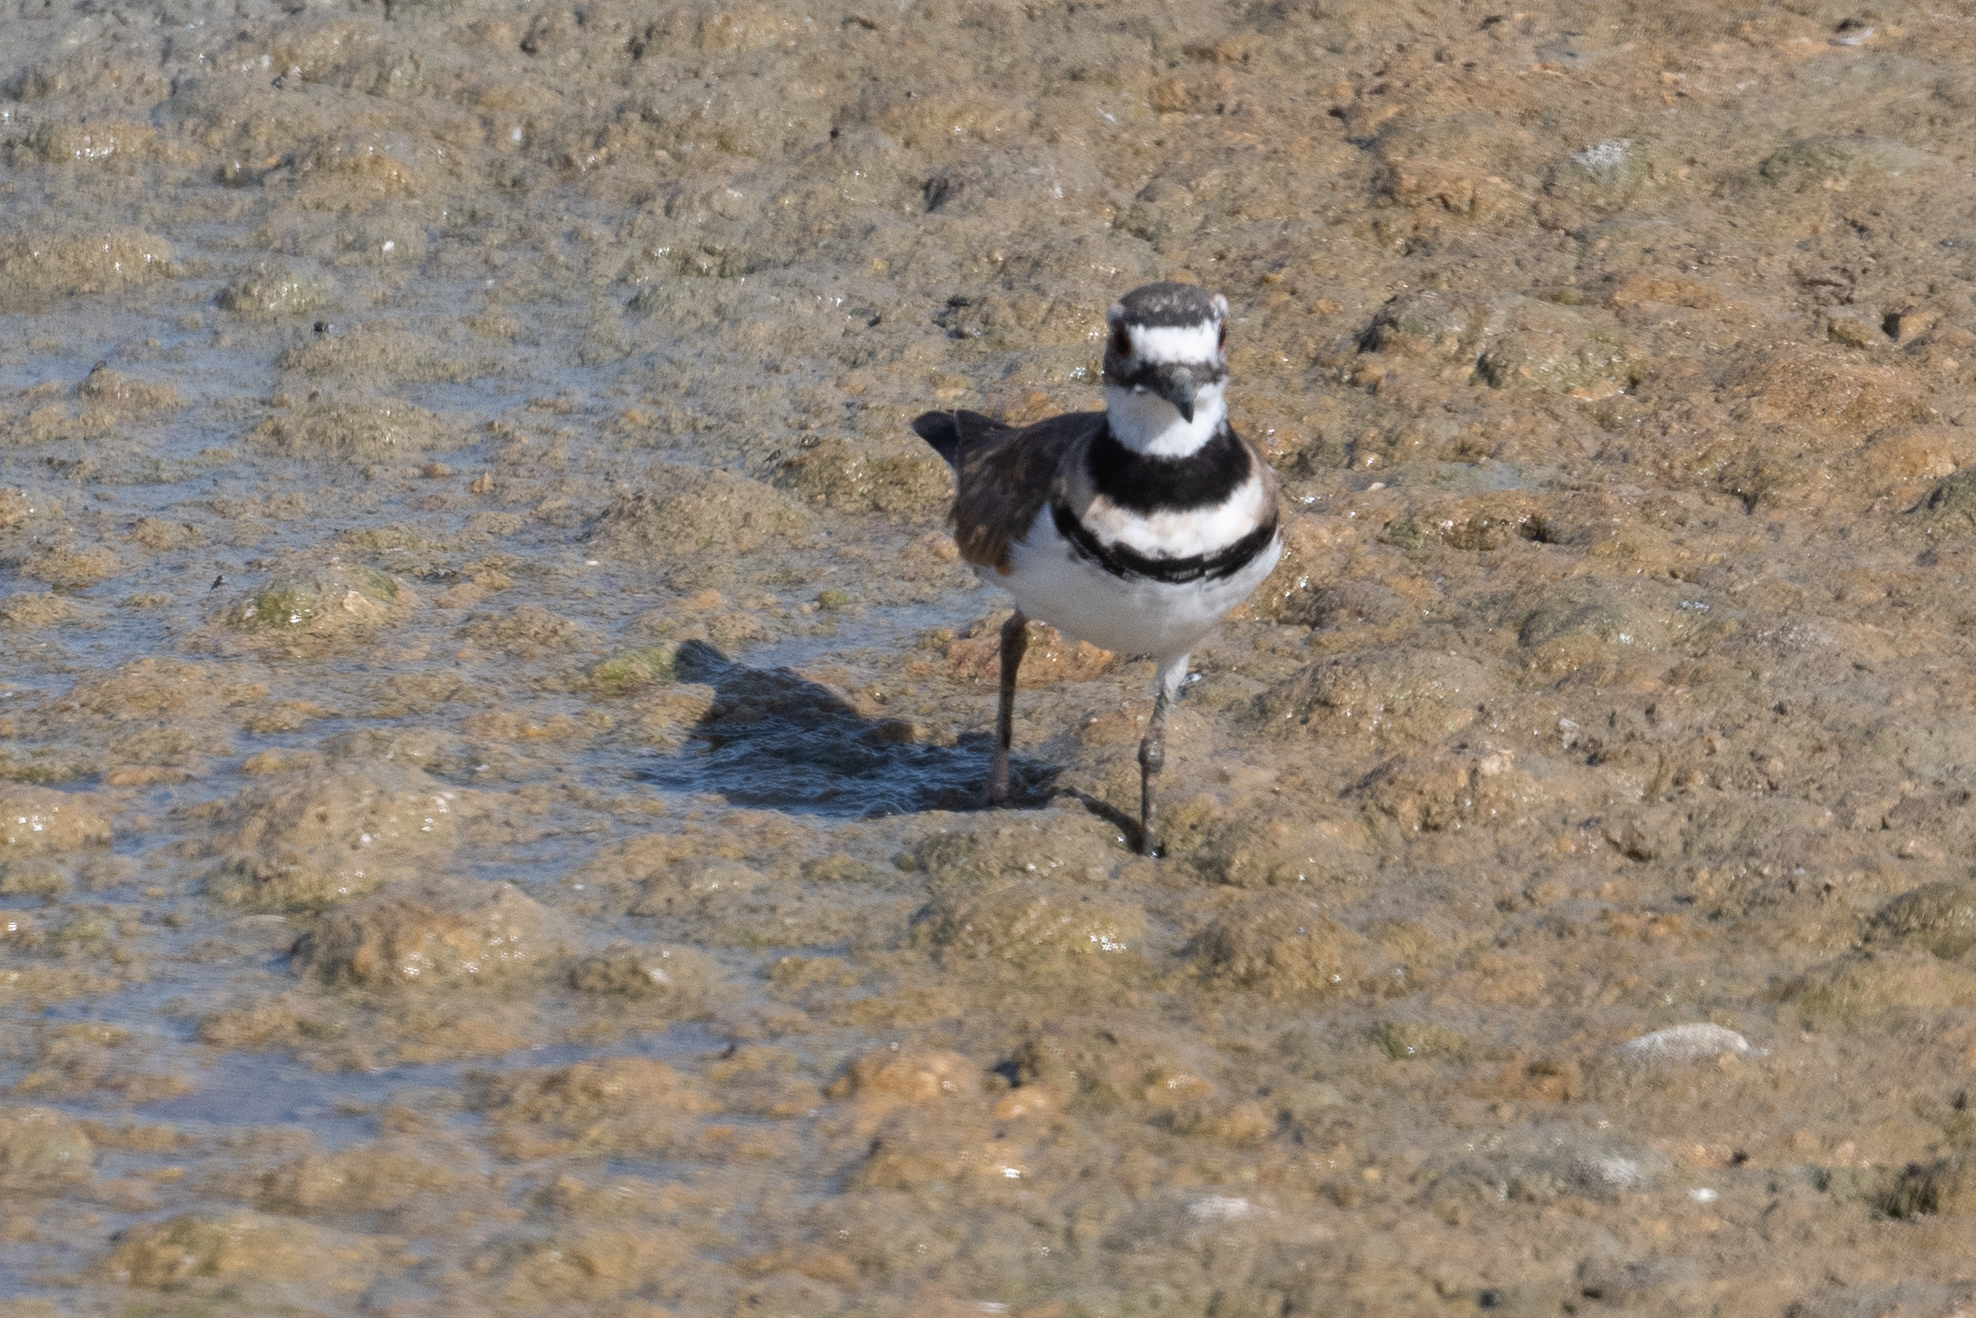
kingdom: Animalia
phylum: Chordata
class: Aves
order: Charadriiformes
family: Charadriidae
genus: Charadrius
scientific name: Charadrius vociferus
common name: Killdeer
